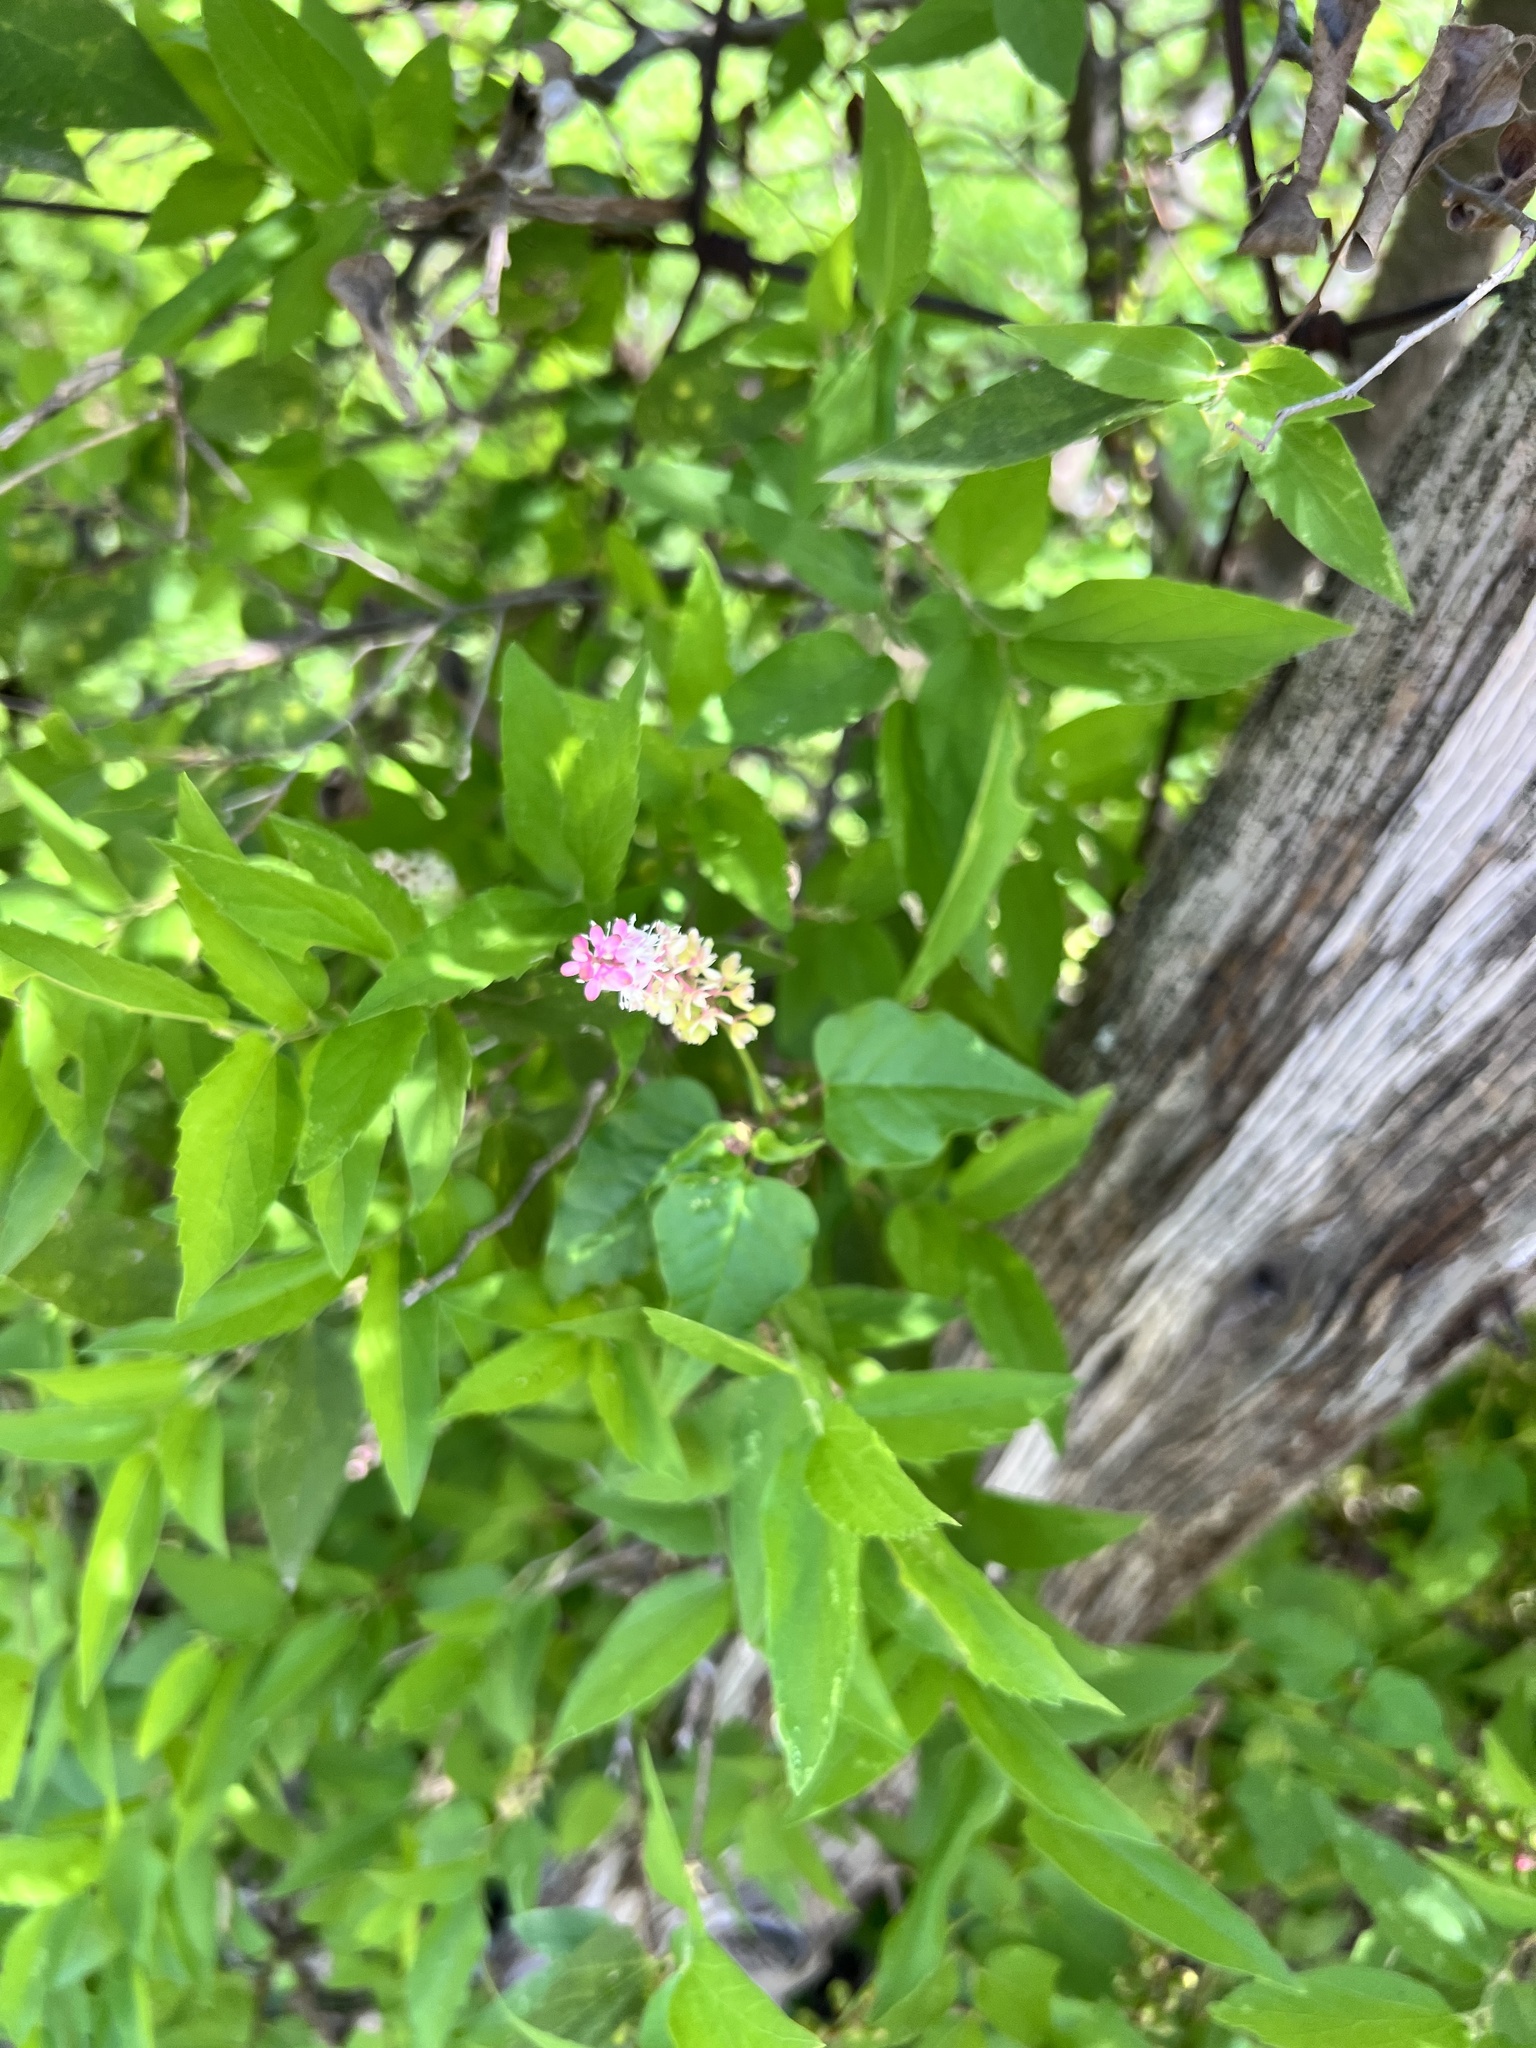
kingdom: Plantae
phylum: Tracheophyta
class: Magnoliopsida
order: Caryophyllales
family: Phytolaccaceae
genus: Rivina
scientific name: Rivina humilis
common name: Rougeplant
